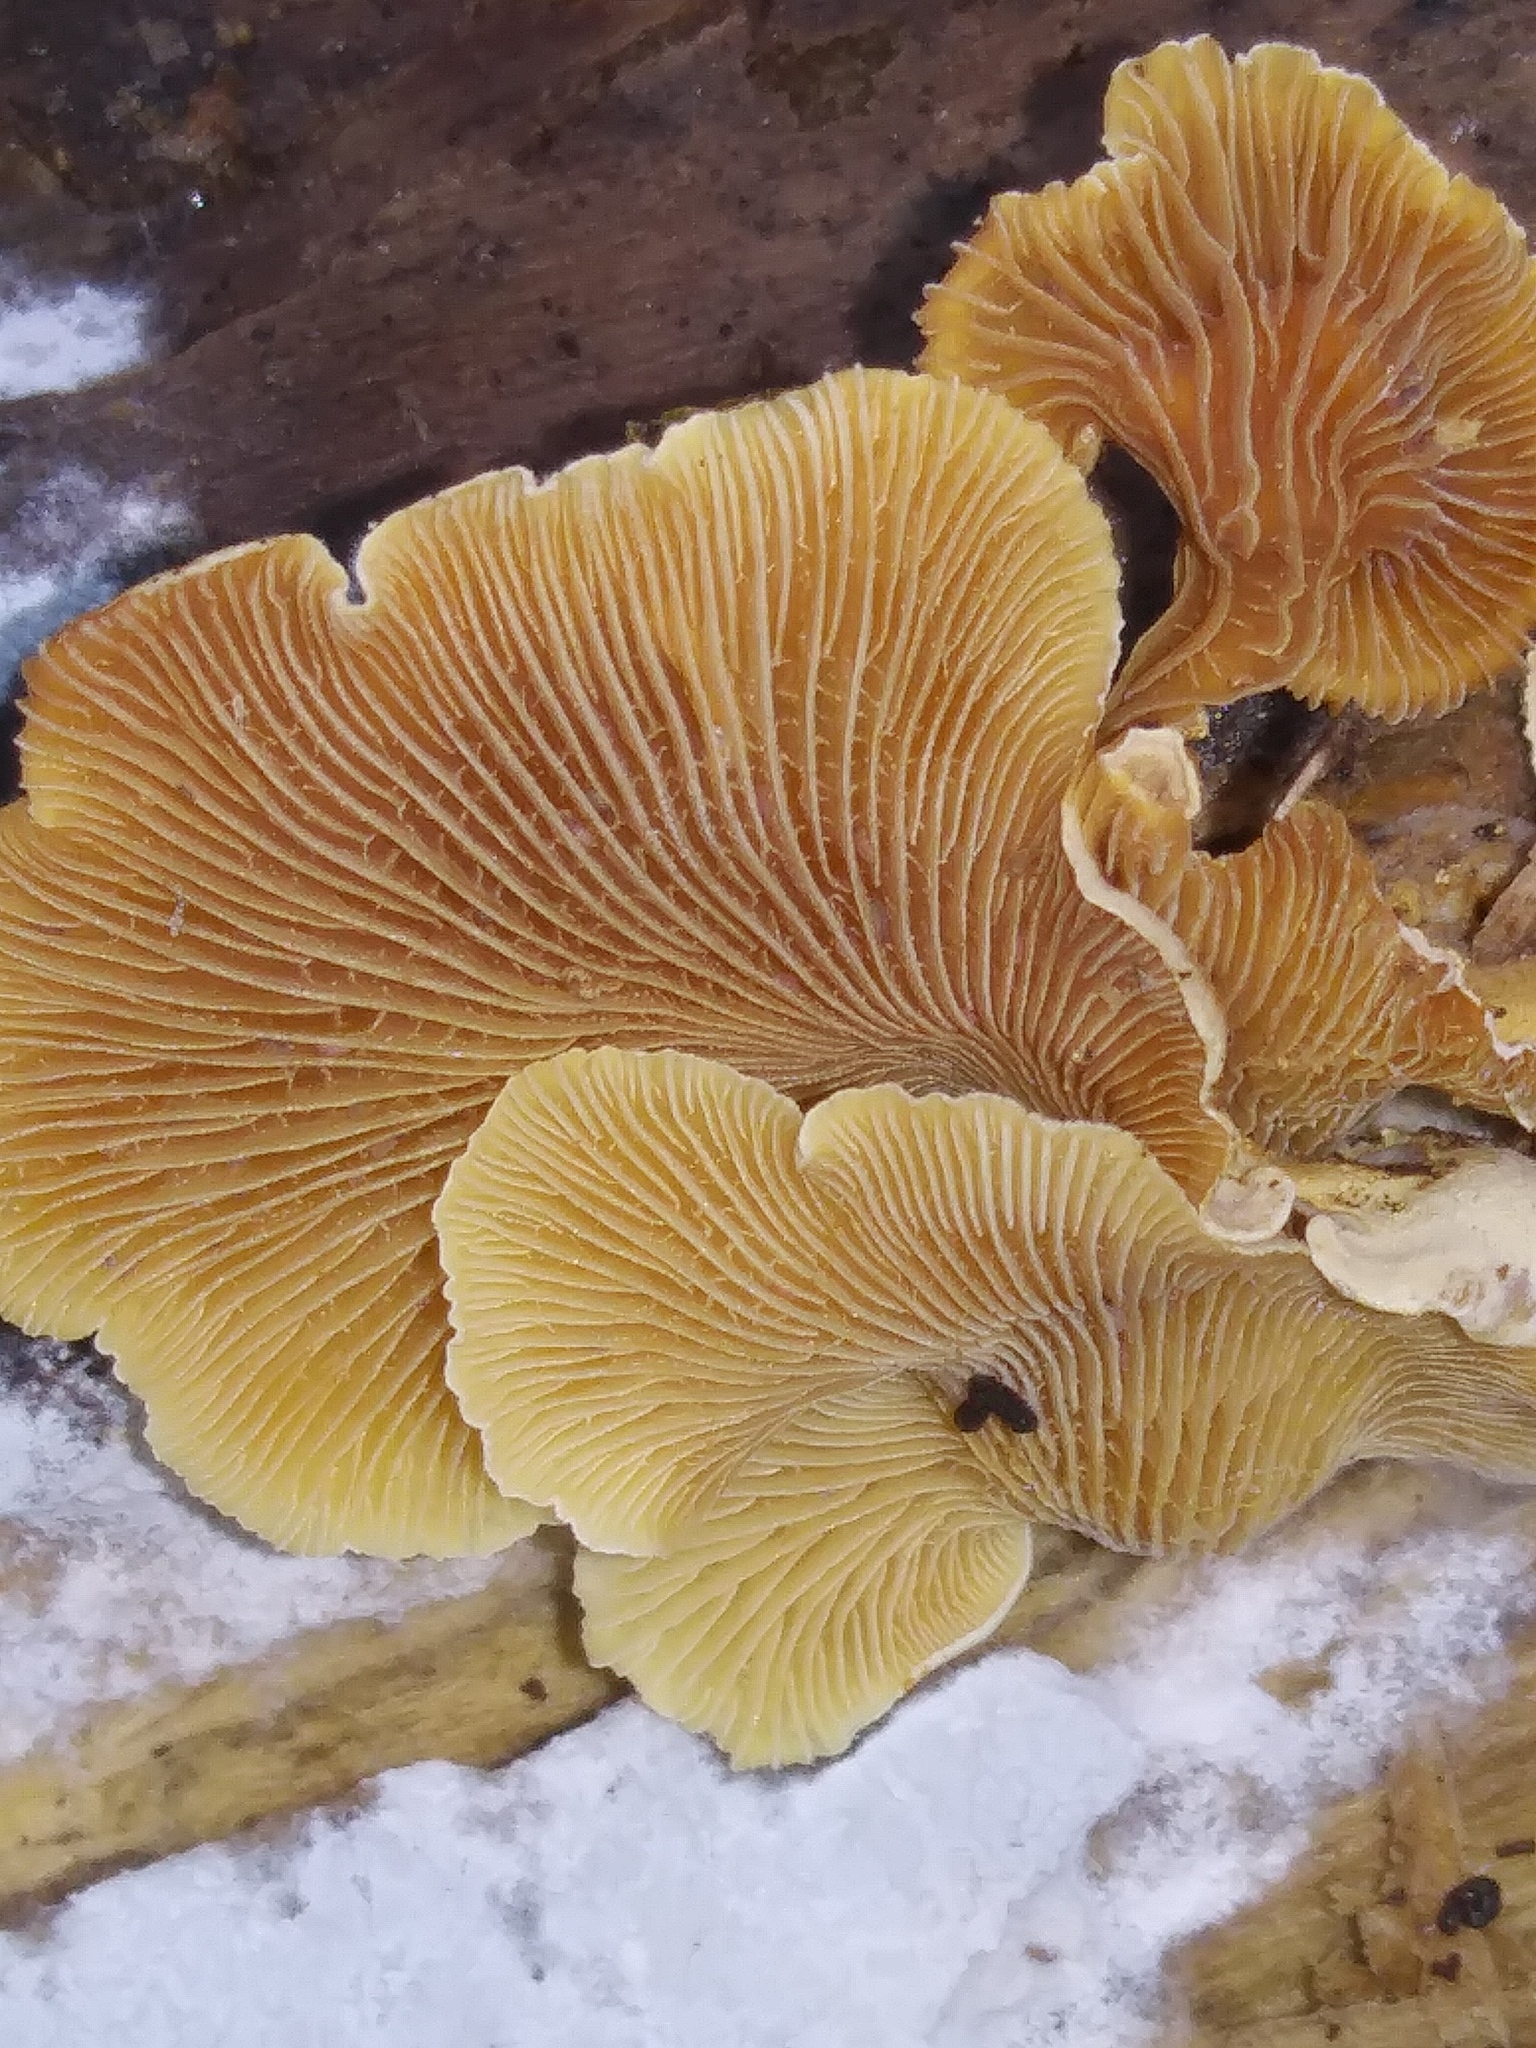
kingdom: Fungi
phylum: Basidiomycota
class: Agaricomycetes
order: Agaricales
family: Mycenaceae
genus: Panellus
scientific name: Panellus stipticus
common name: Bitter oysterling
